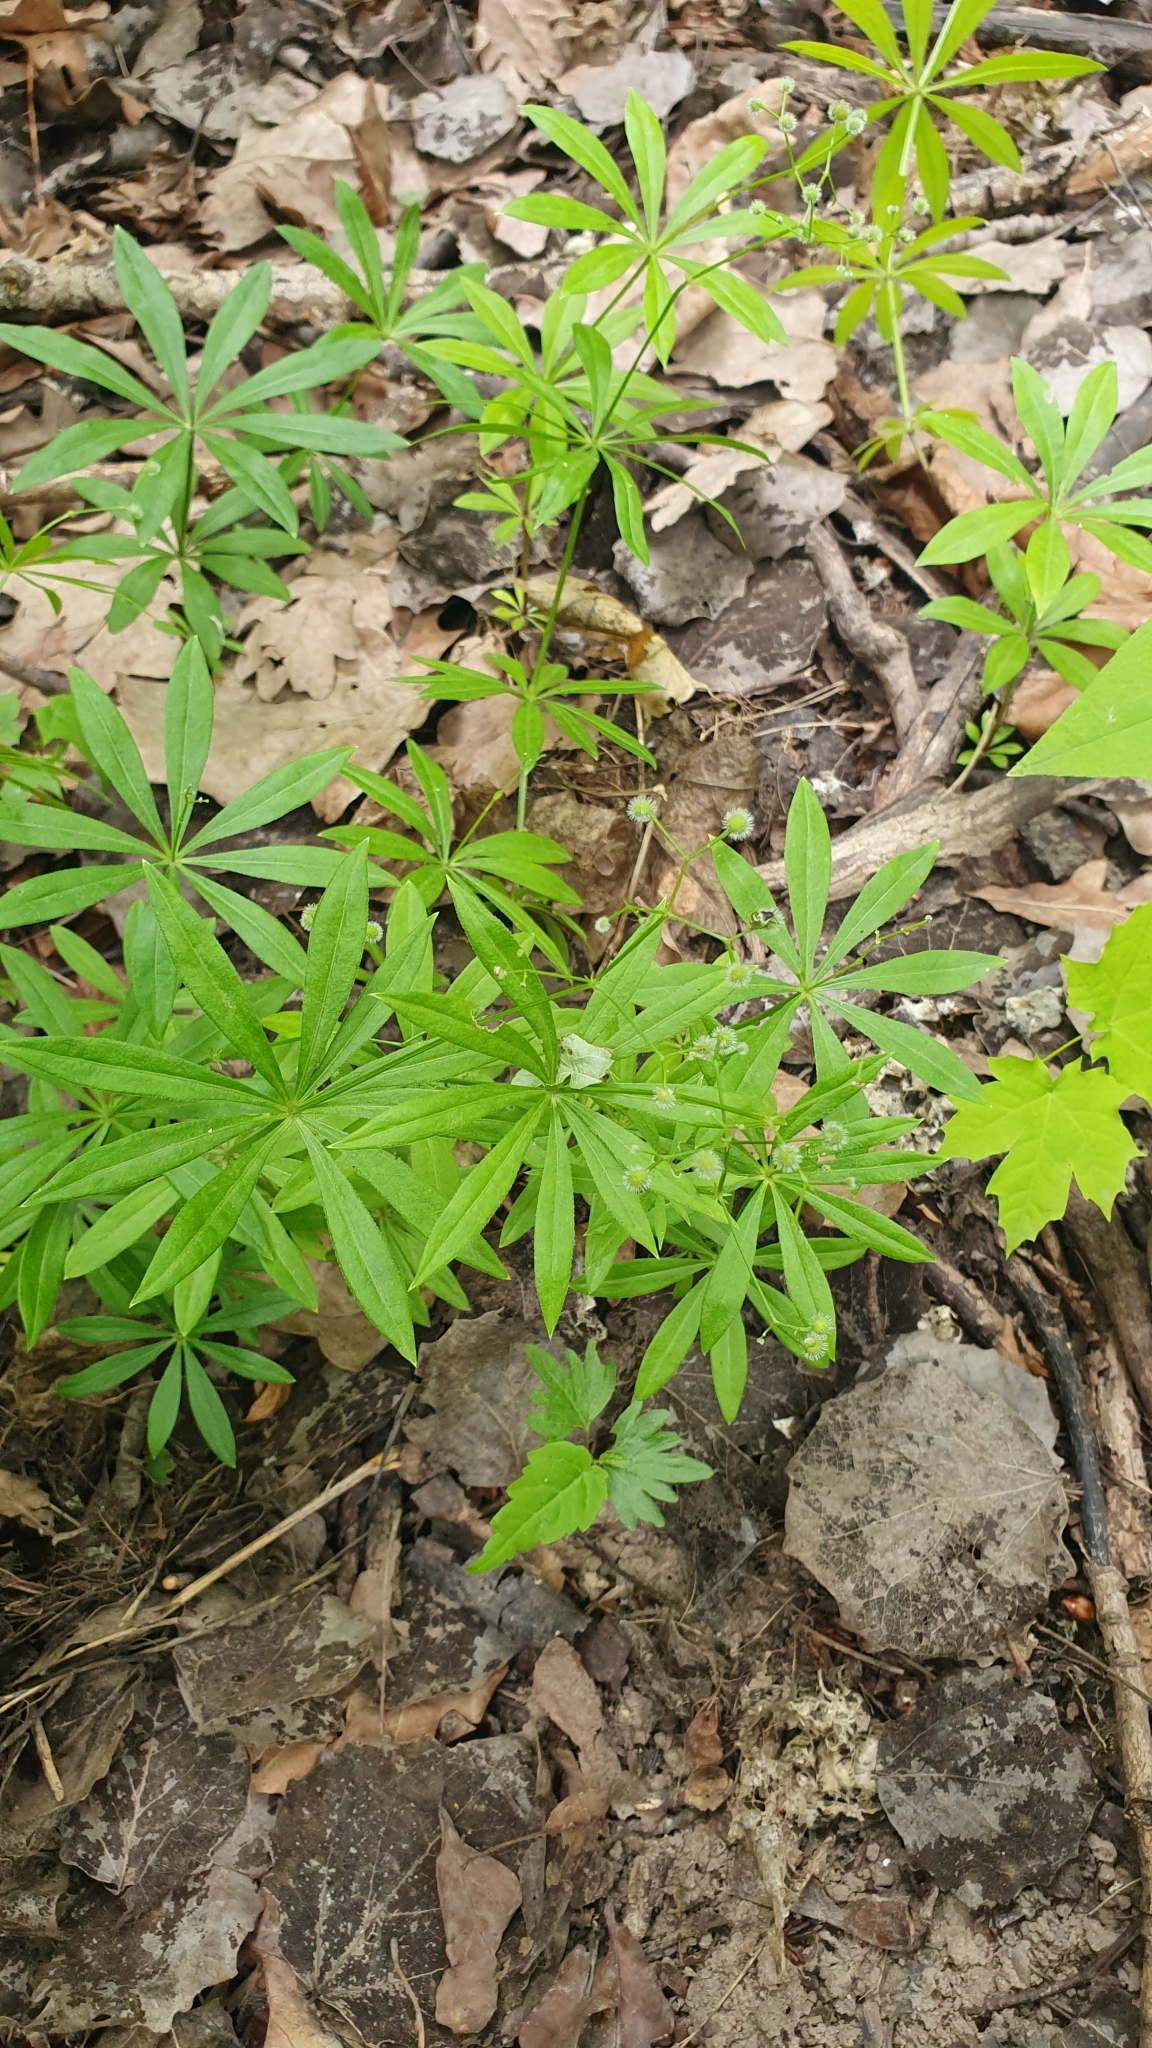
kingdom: Plantae
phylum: Tracheophyta
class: Magnoliopsida
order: Gentianales
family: Rubiaceae
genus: Galium
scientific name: Galium odoratum
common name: Sweet woodruff
